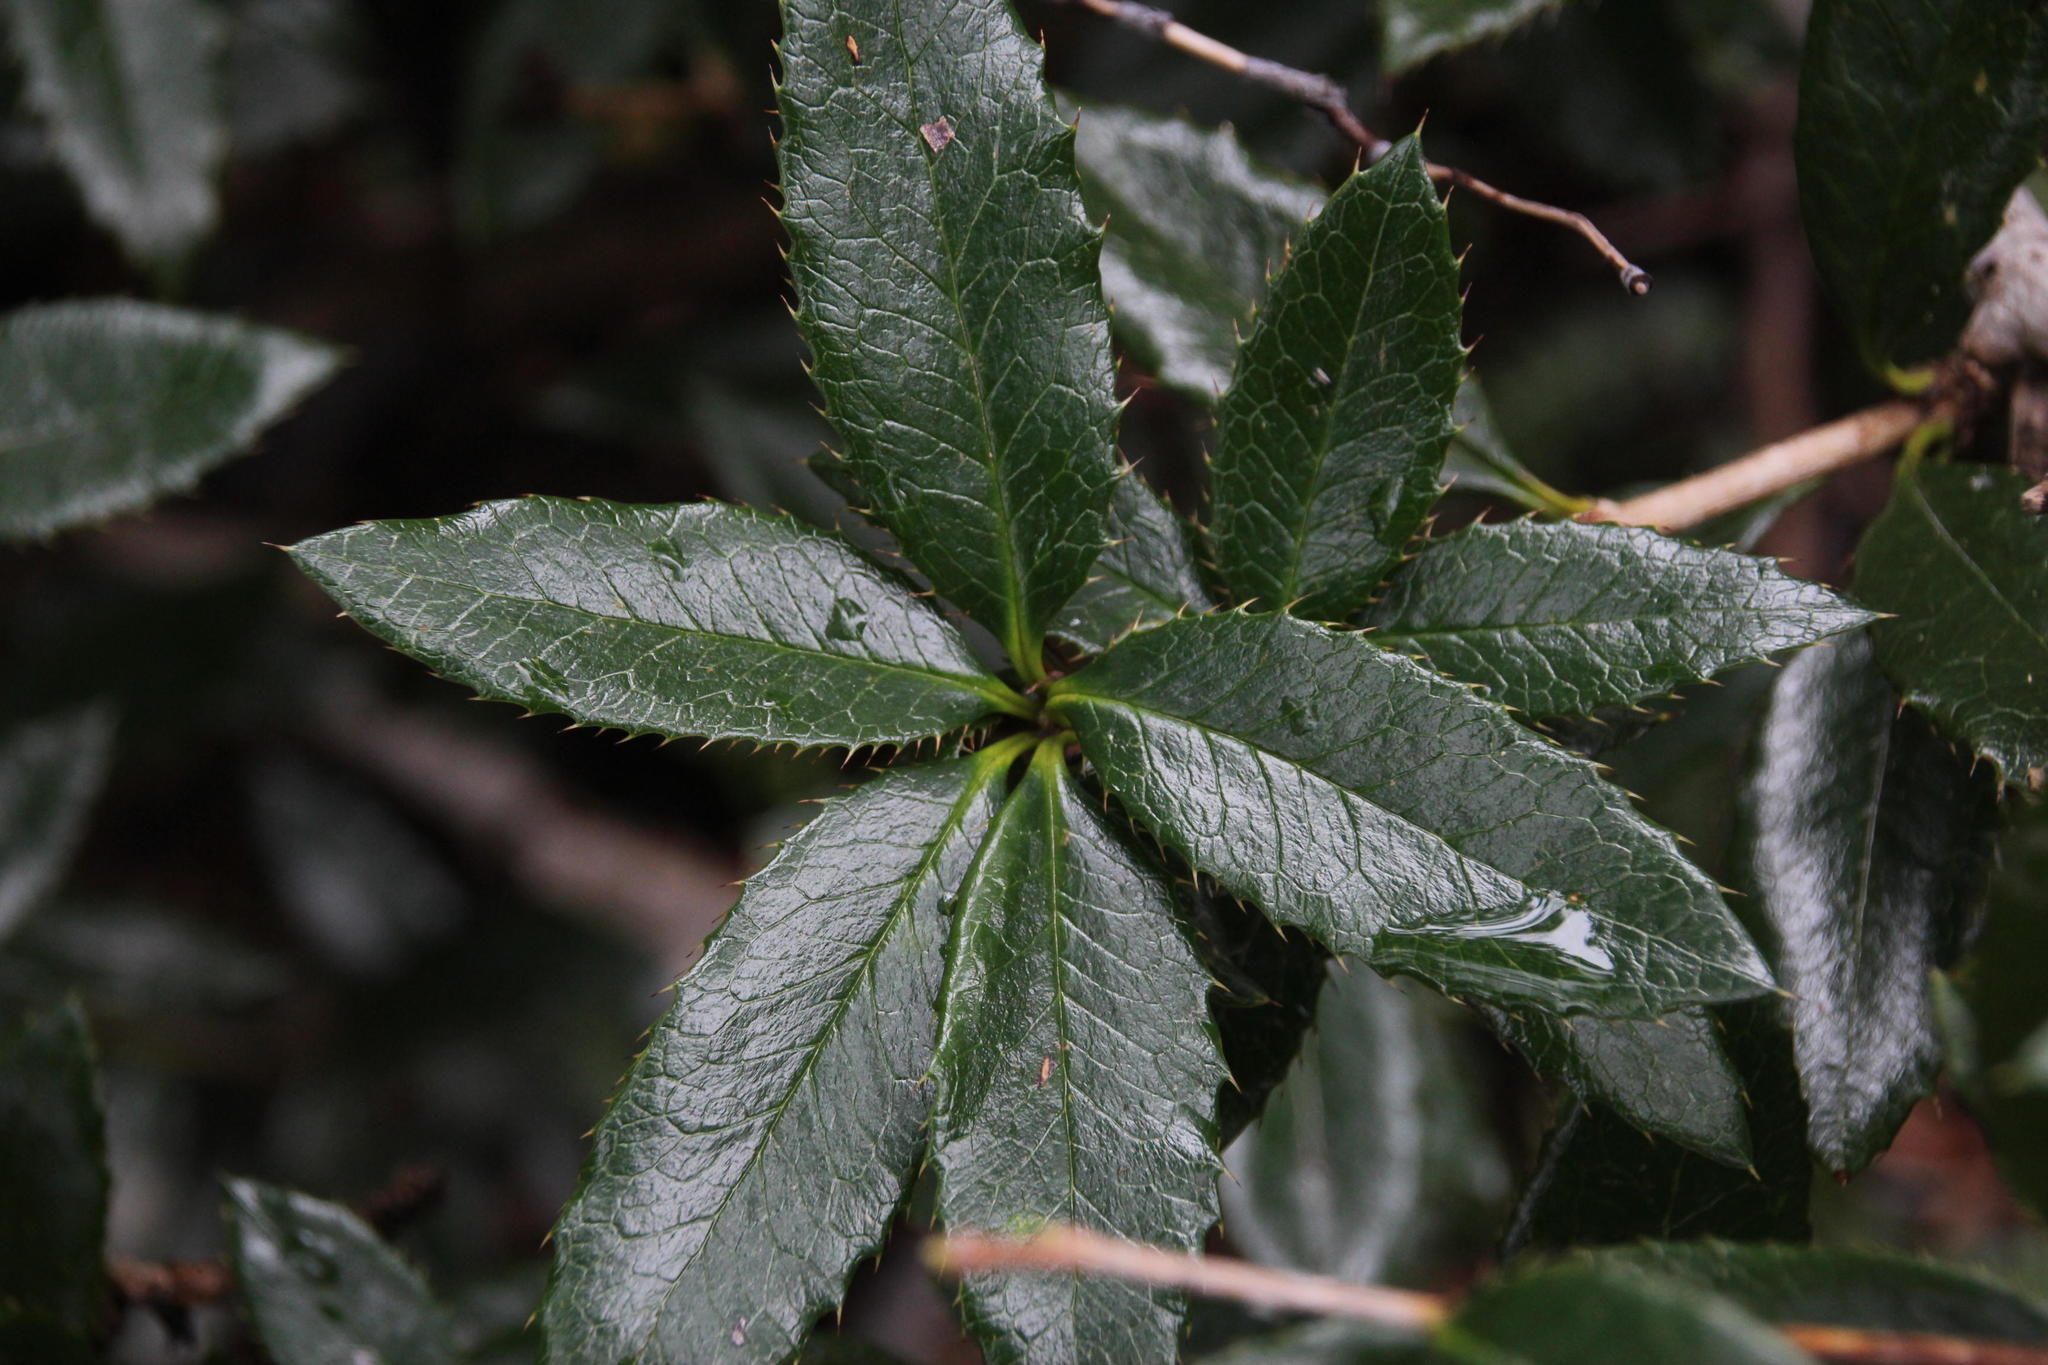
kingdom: Plantae
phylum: Tracheophyta
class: Magnoliopsida
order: Ranunculales
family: Berberidaceae
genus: Berberis
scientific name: Berberis pseudoilicifolia
